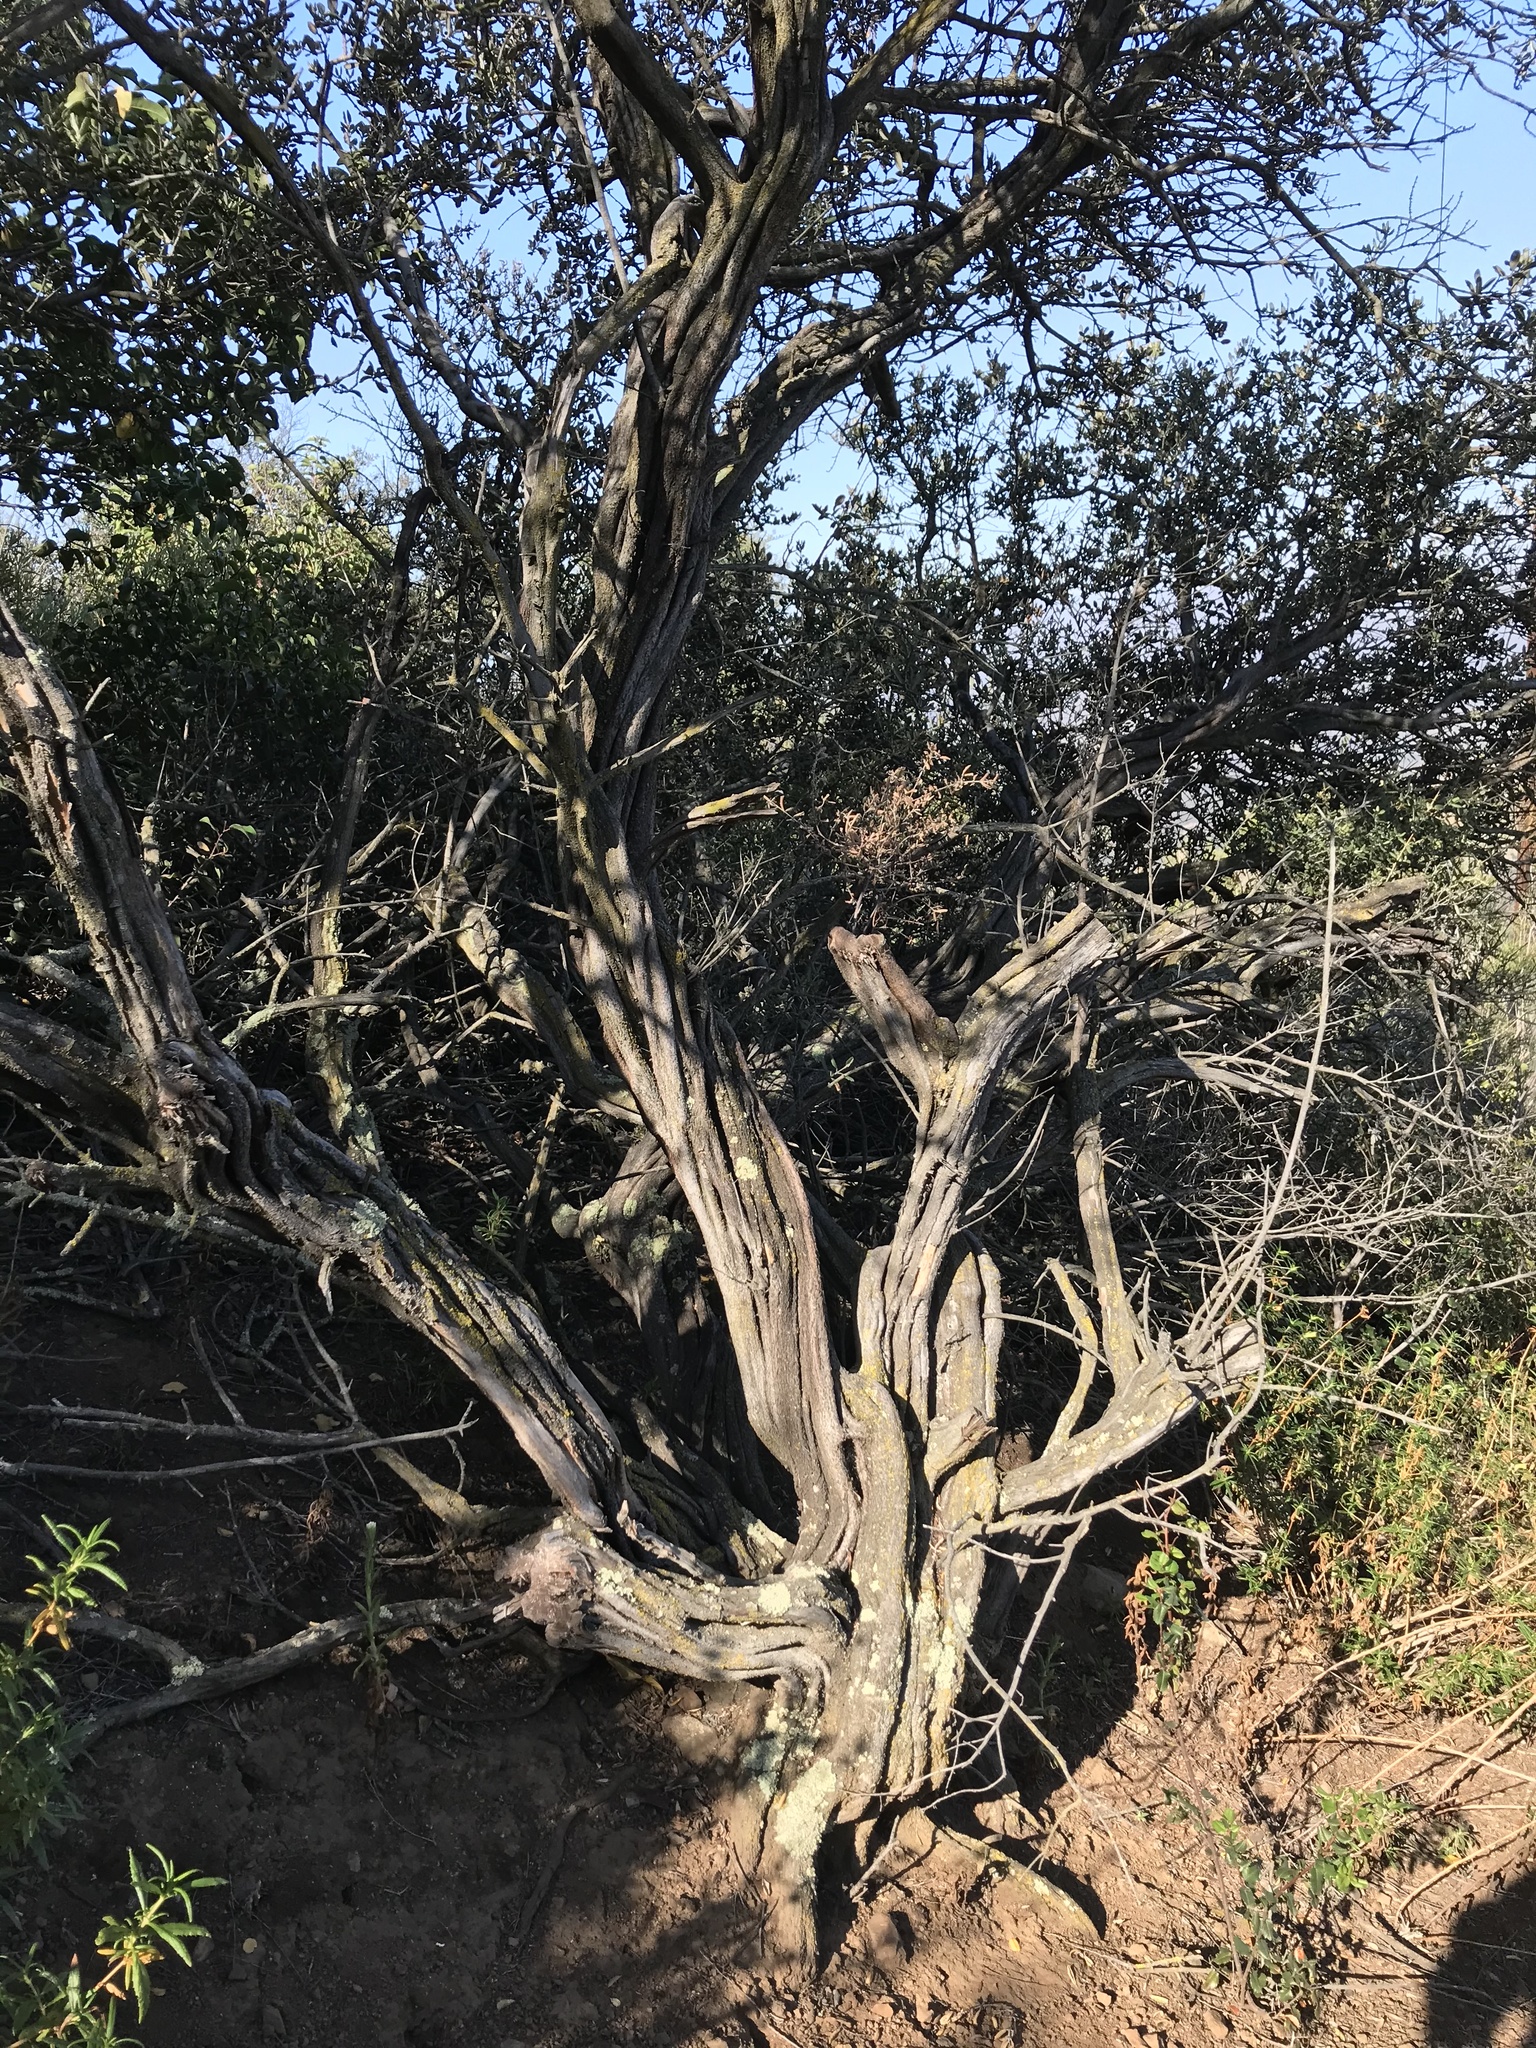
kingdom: Plantae
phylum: Tracheophyta
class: Magnoliopsida
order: Rosales
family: Rhamnaceae
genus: Ceanothus
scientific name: Ceanothus crassifolius
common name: Hoaryleaf ceanothus
